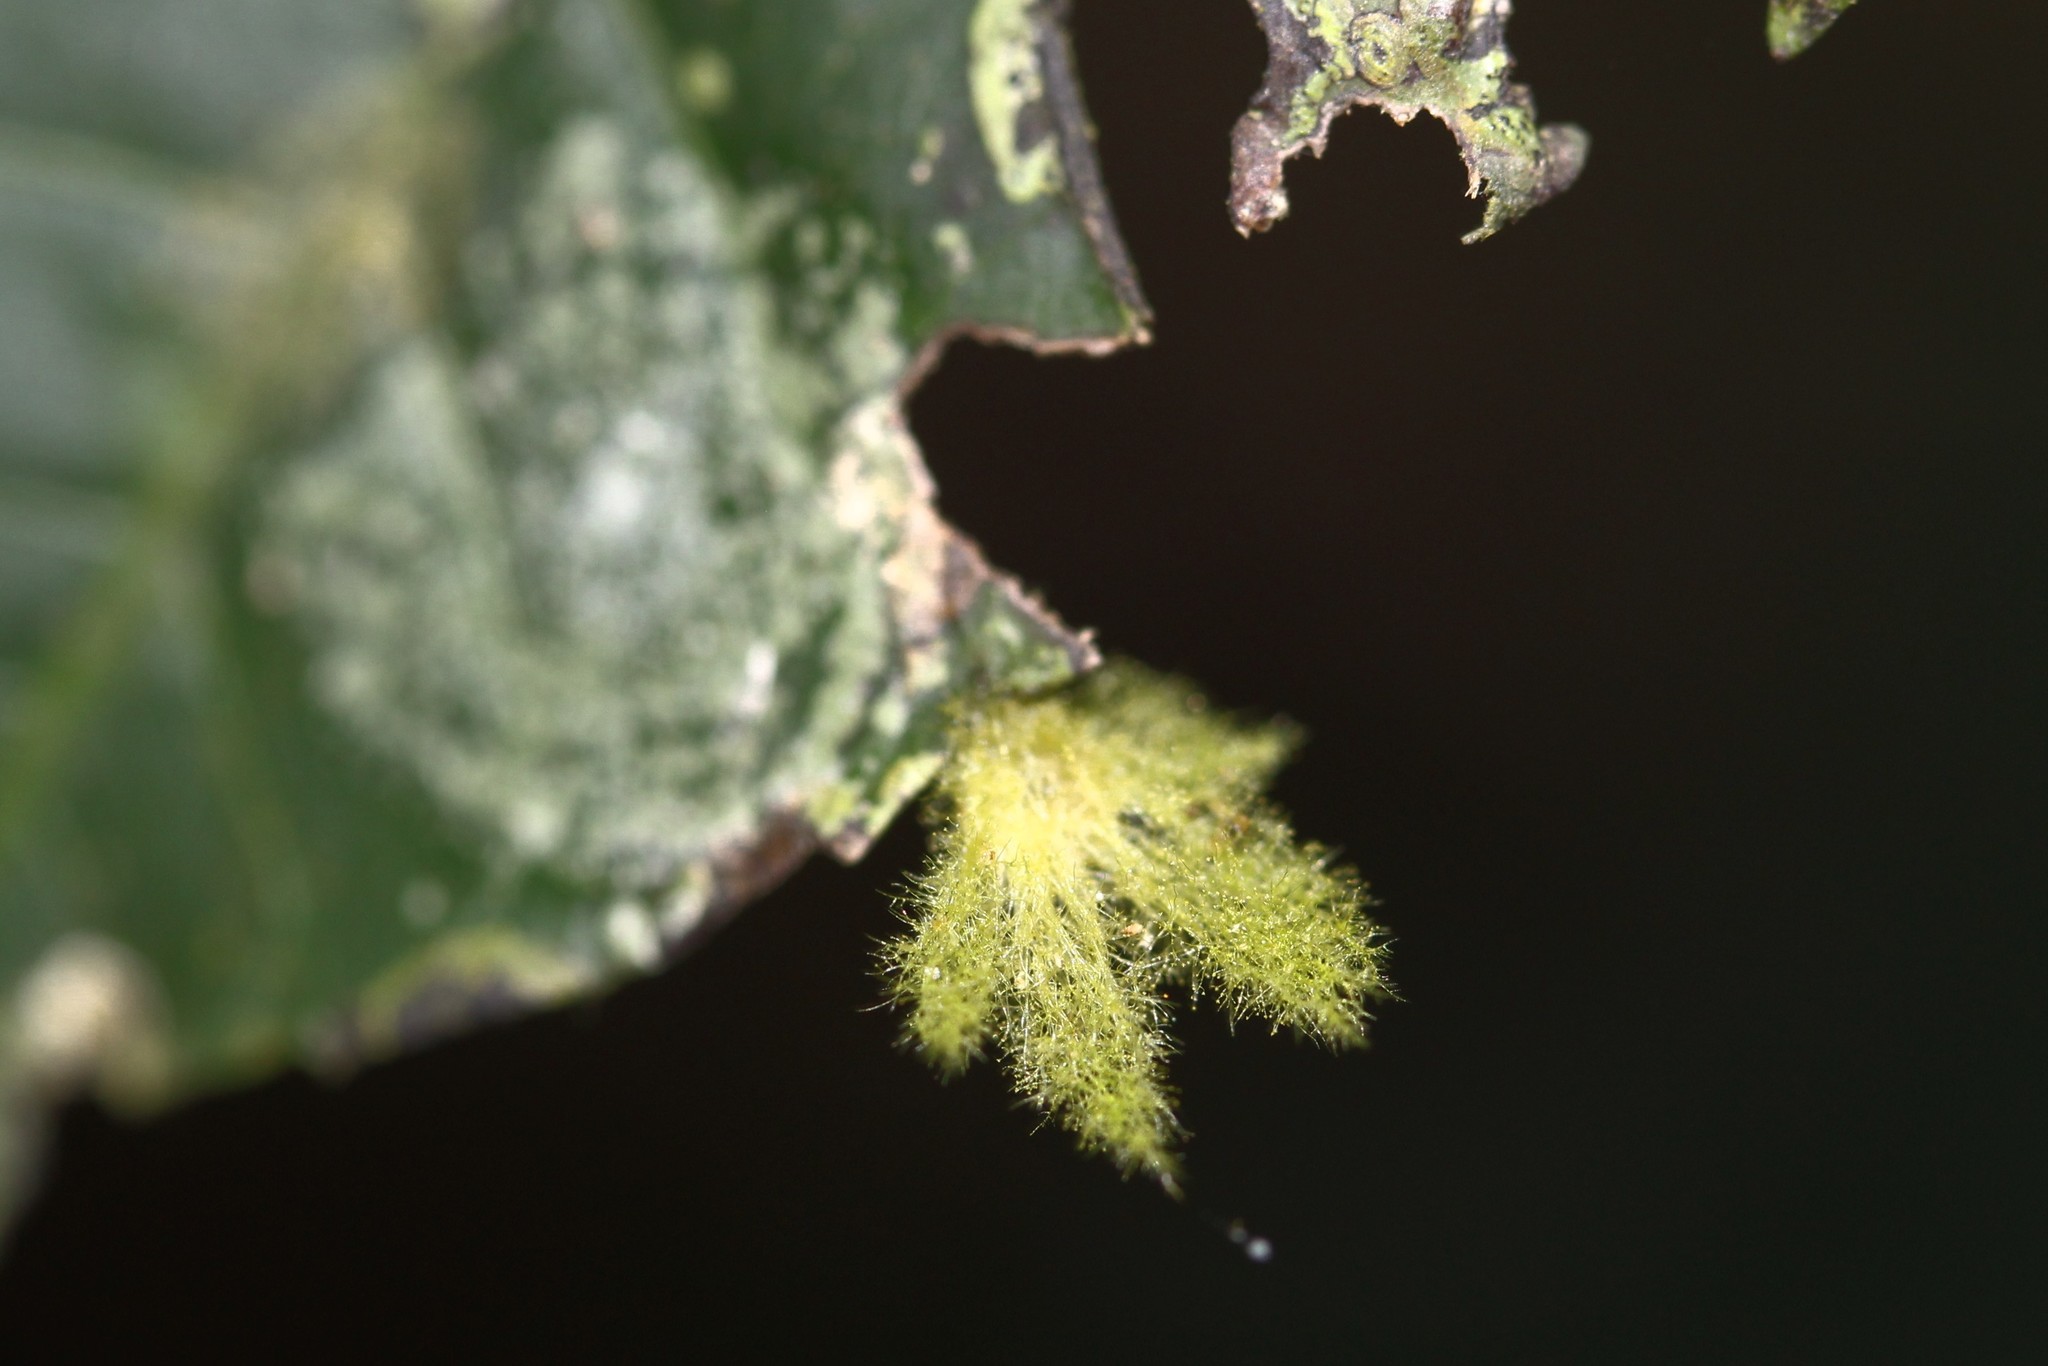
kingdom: Fungi
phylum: Ascomycota
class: Lecanoromycetes
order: Ostropales
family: Coenogoniaceae
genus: Coenogonium
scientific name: Coenogonium
